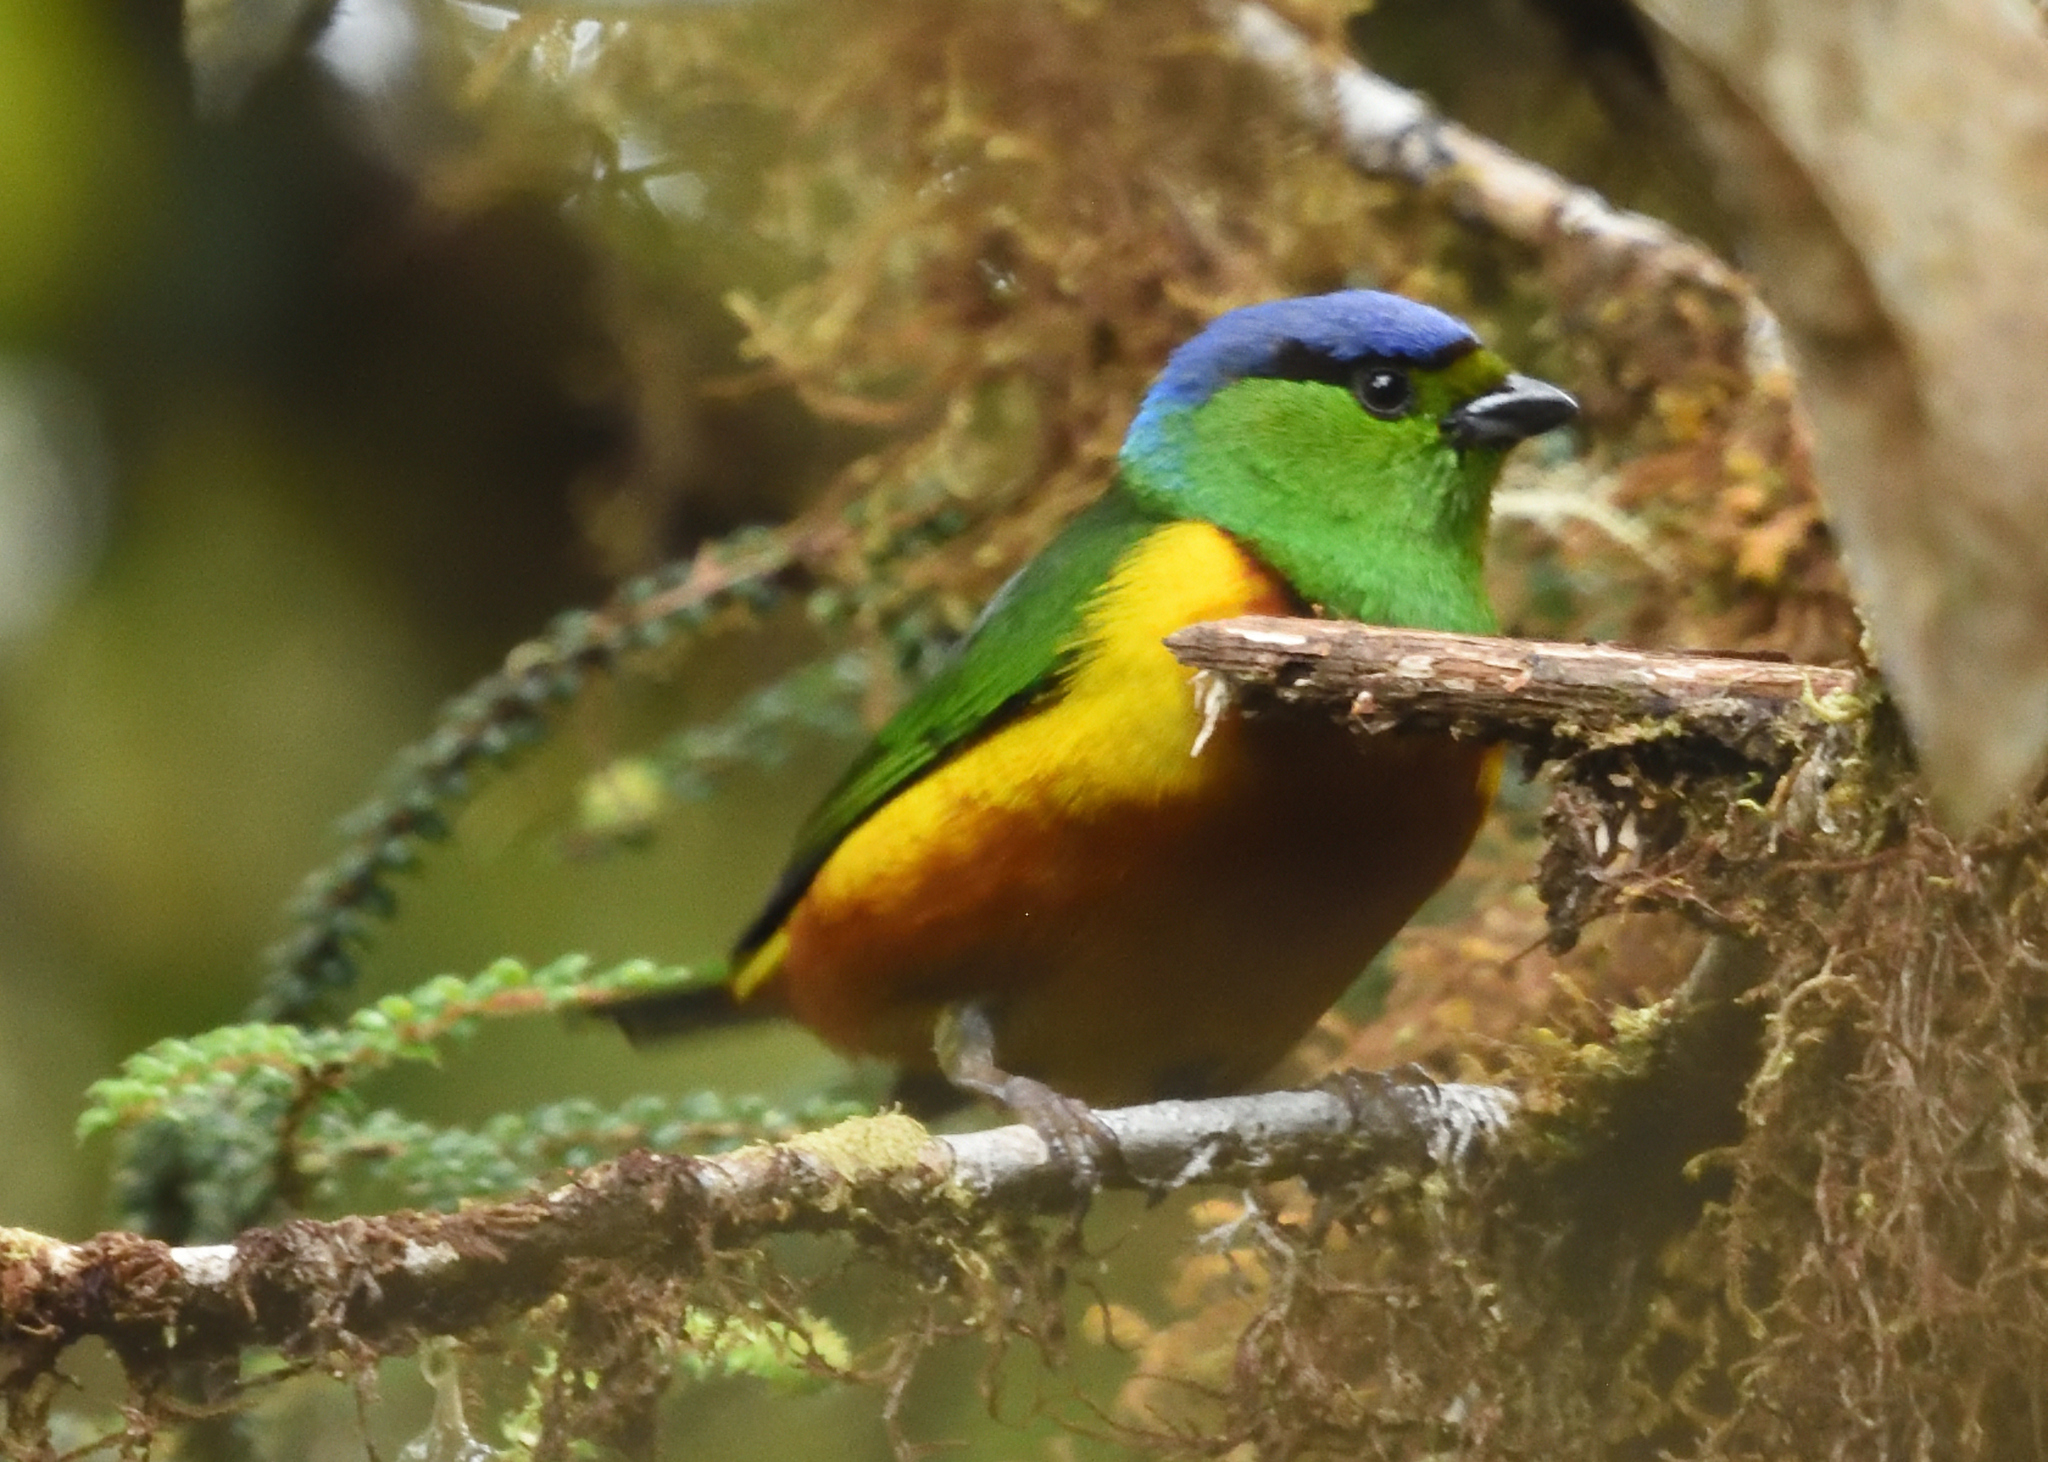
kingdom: Animalia
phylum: Chordata
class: Aves
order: Passeriformes
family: Fringillidae
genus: Chlorophonia
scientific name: Chlorophonia pyrrhophrys
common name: Chestnut-breasted chlorophonia
